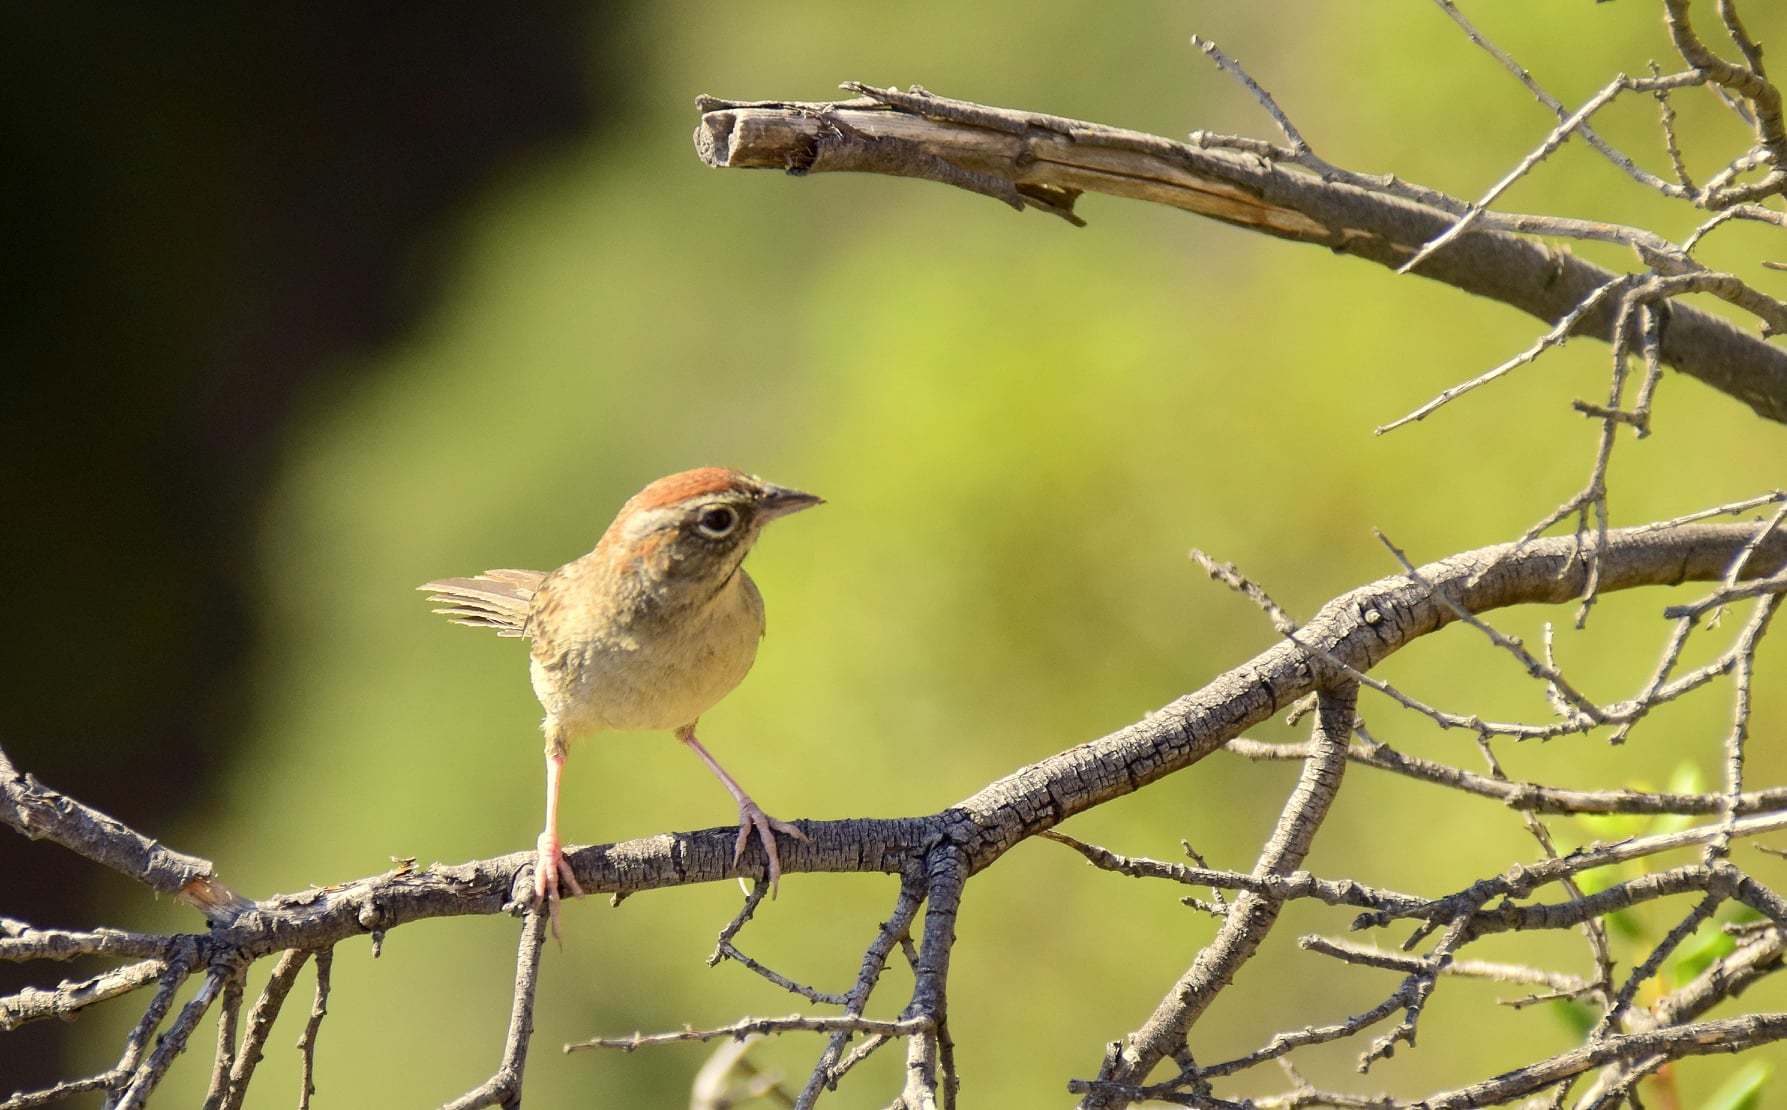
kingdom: Animalia
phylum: Chordata
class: Aves
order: Passeriformes
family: Passerellidae
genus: Aimophila
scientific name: Aimophila ruficeps
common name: Rufous-crowned sparrow
